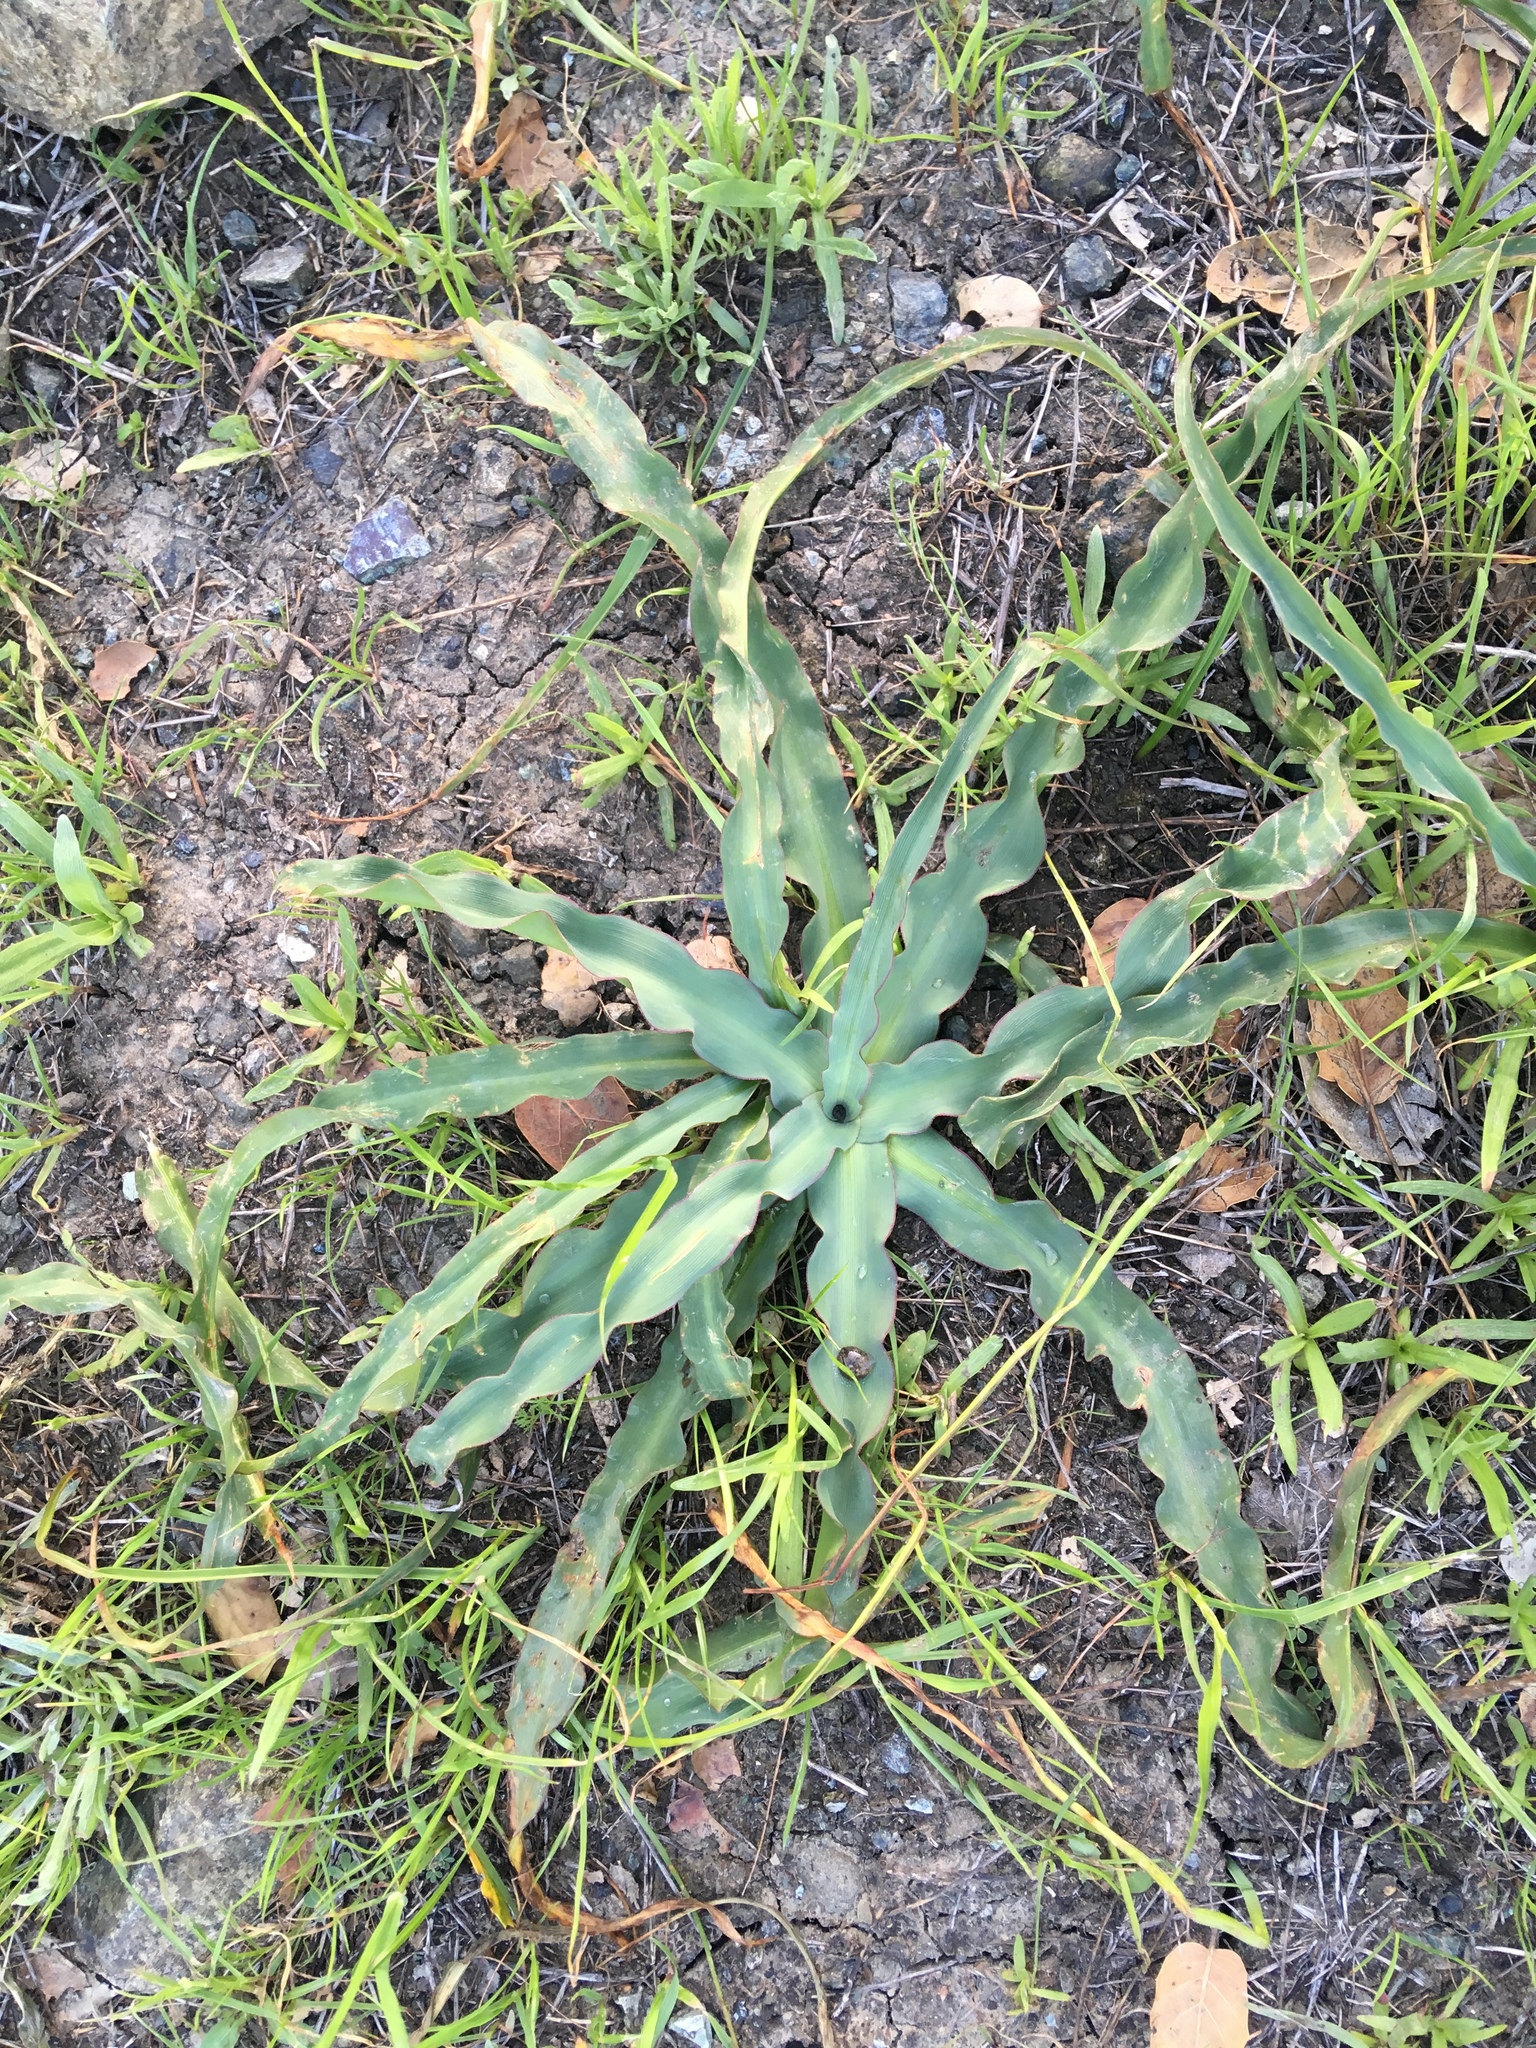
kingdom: Plantae
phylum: Tracheophyta
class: Liliopsida
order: Asparagales
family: Asparagaceae
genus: Chlorogalum
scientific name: Chlorogalum pomeridianum
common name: Amole
